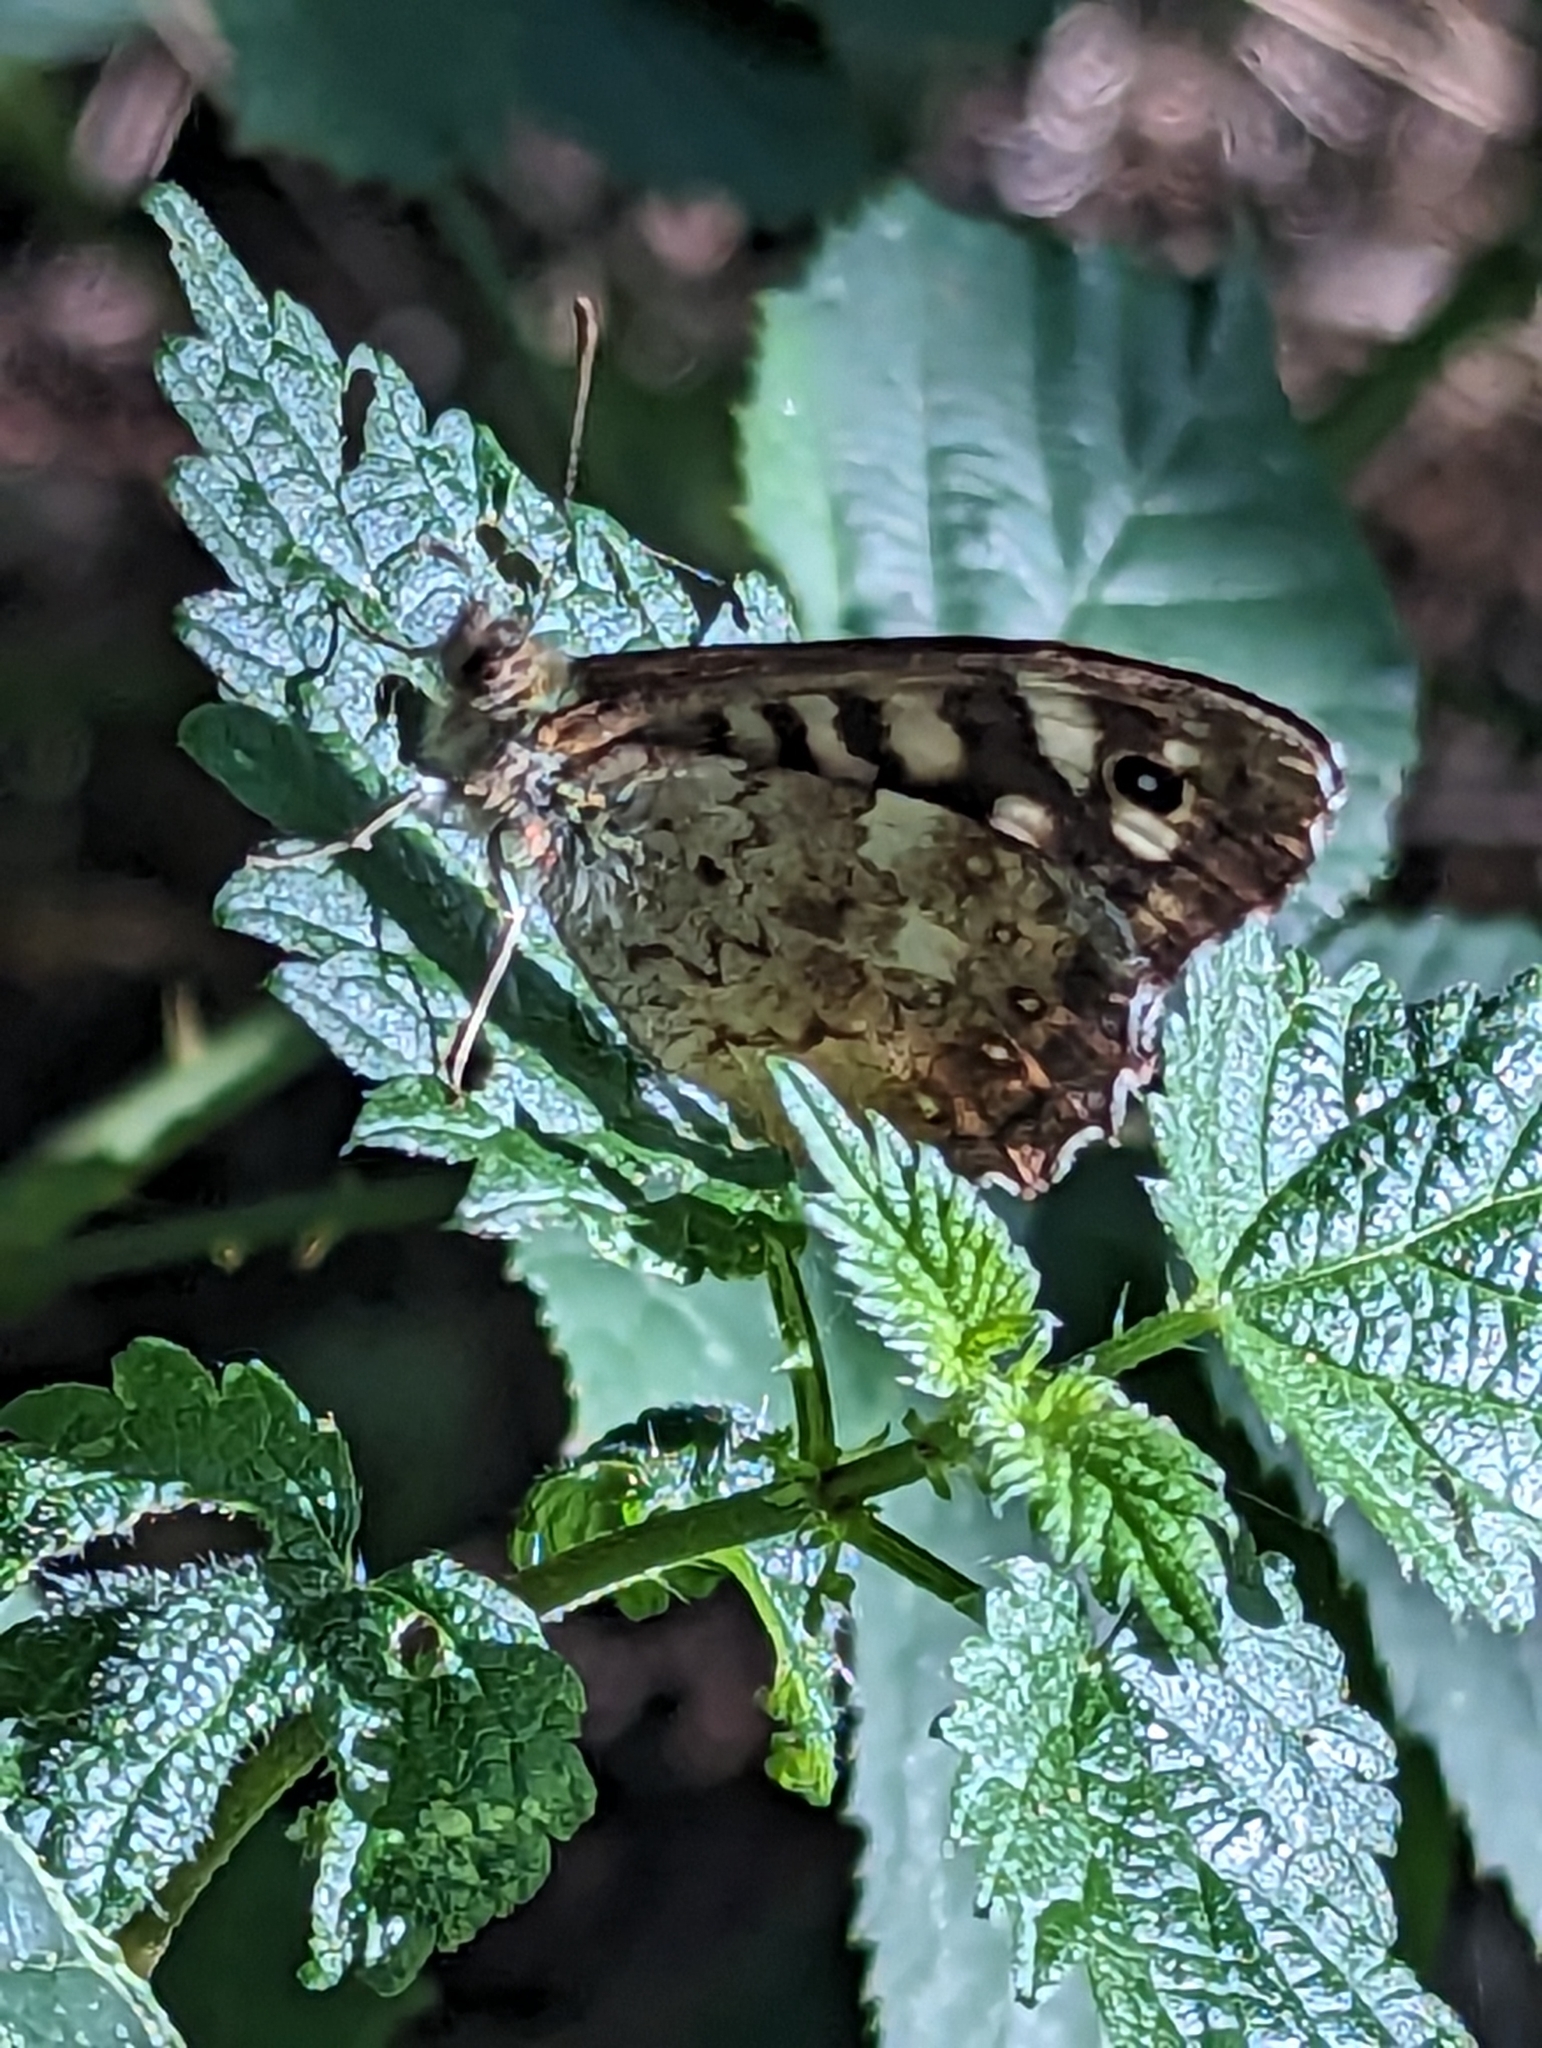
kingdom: Animalia
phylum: Arthropoda
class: Insecta
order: Lepidoptera
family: Nymphalidae
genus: Pararge
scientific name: Pararge aegeria
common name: Speckled wood
